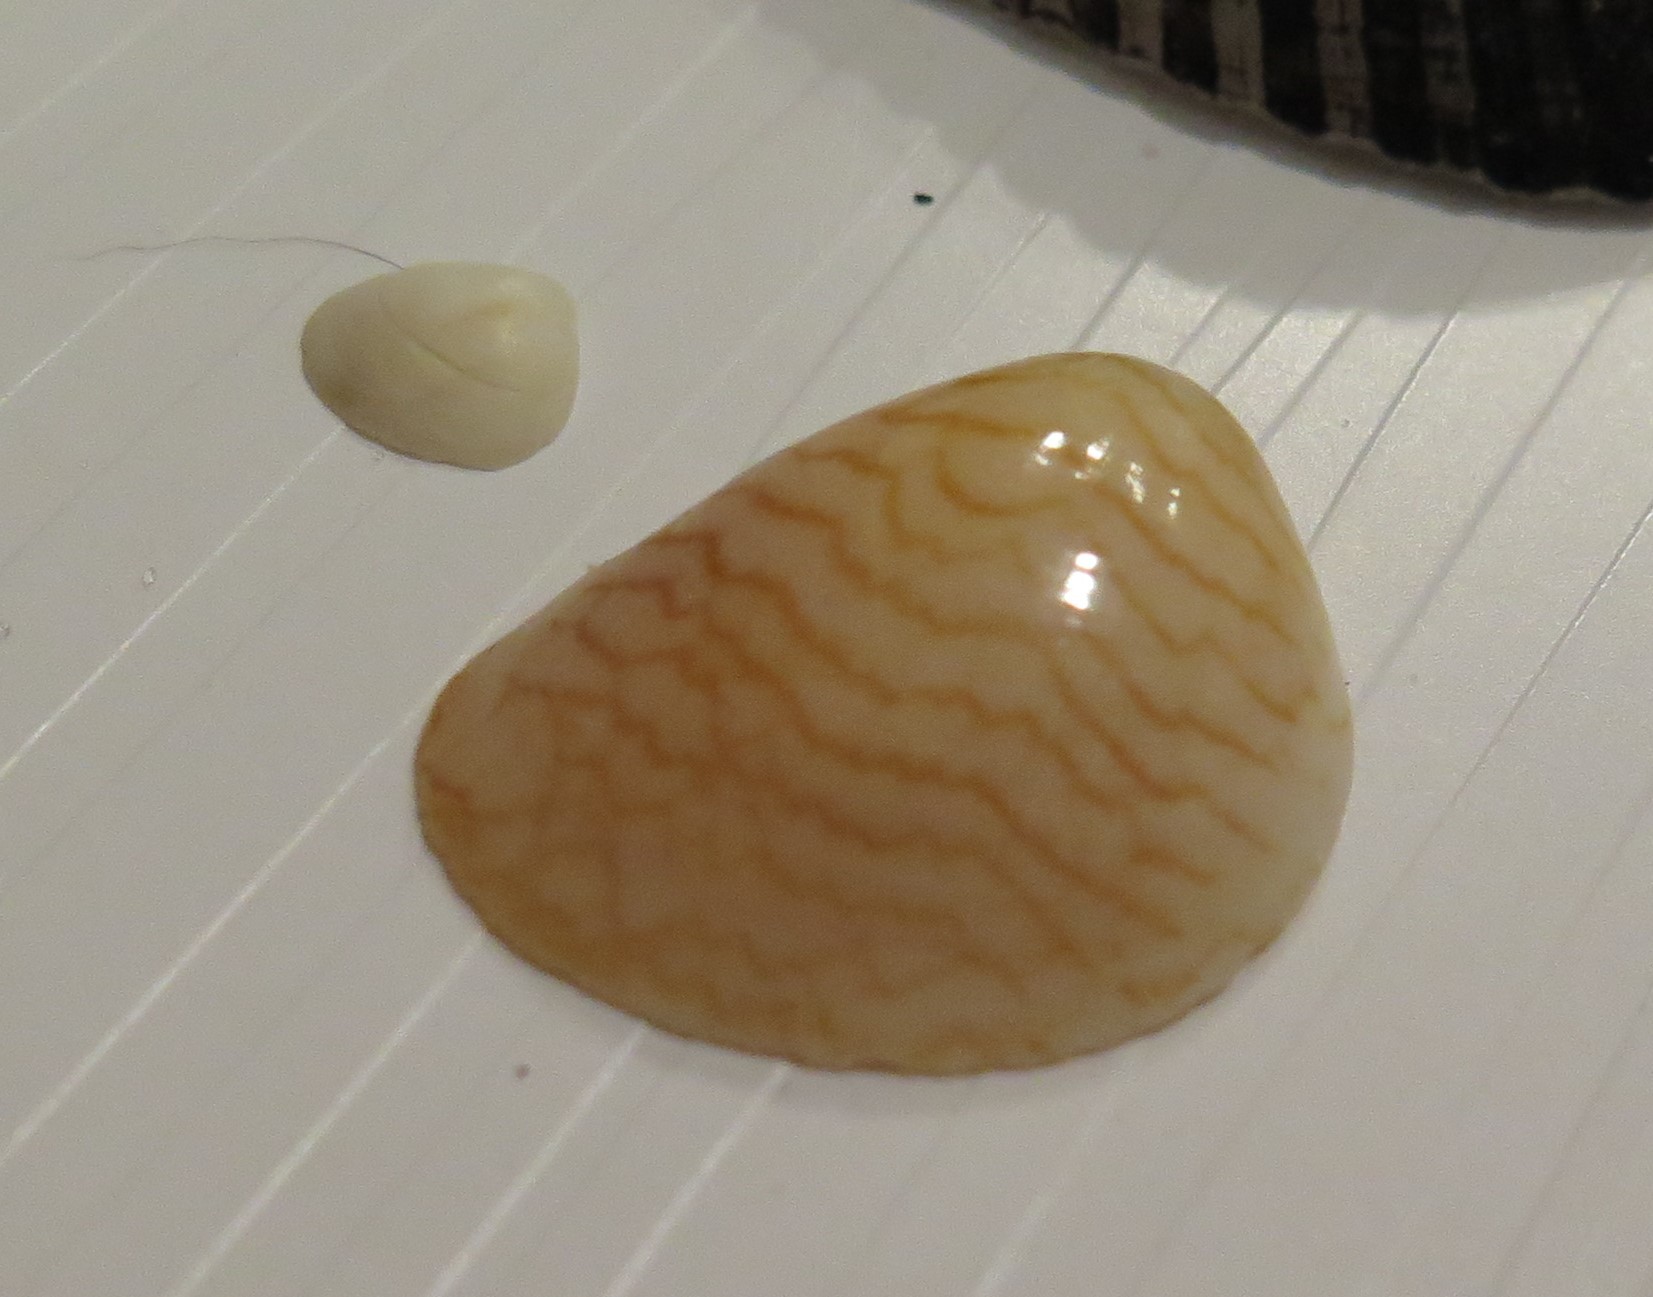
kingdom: Animalia
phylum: Mollusca
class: Bivalvia
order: Cardiida
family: Cardiidae
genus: Laevicardium
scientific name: Laevicardium pictum
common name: Painted eggcockle
